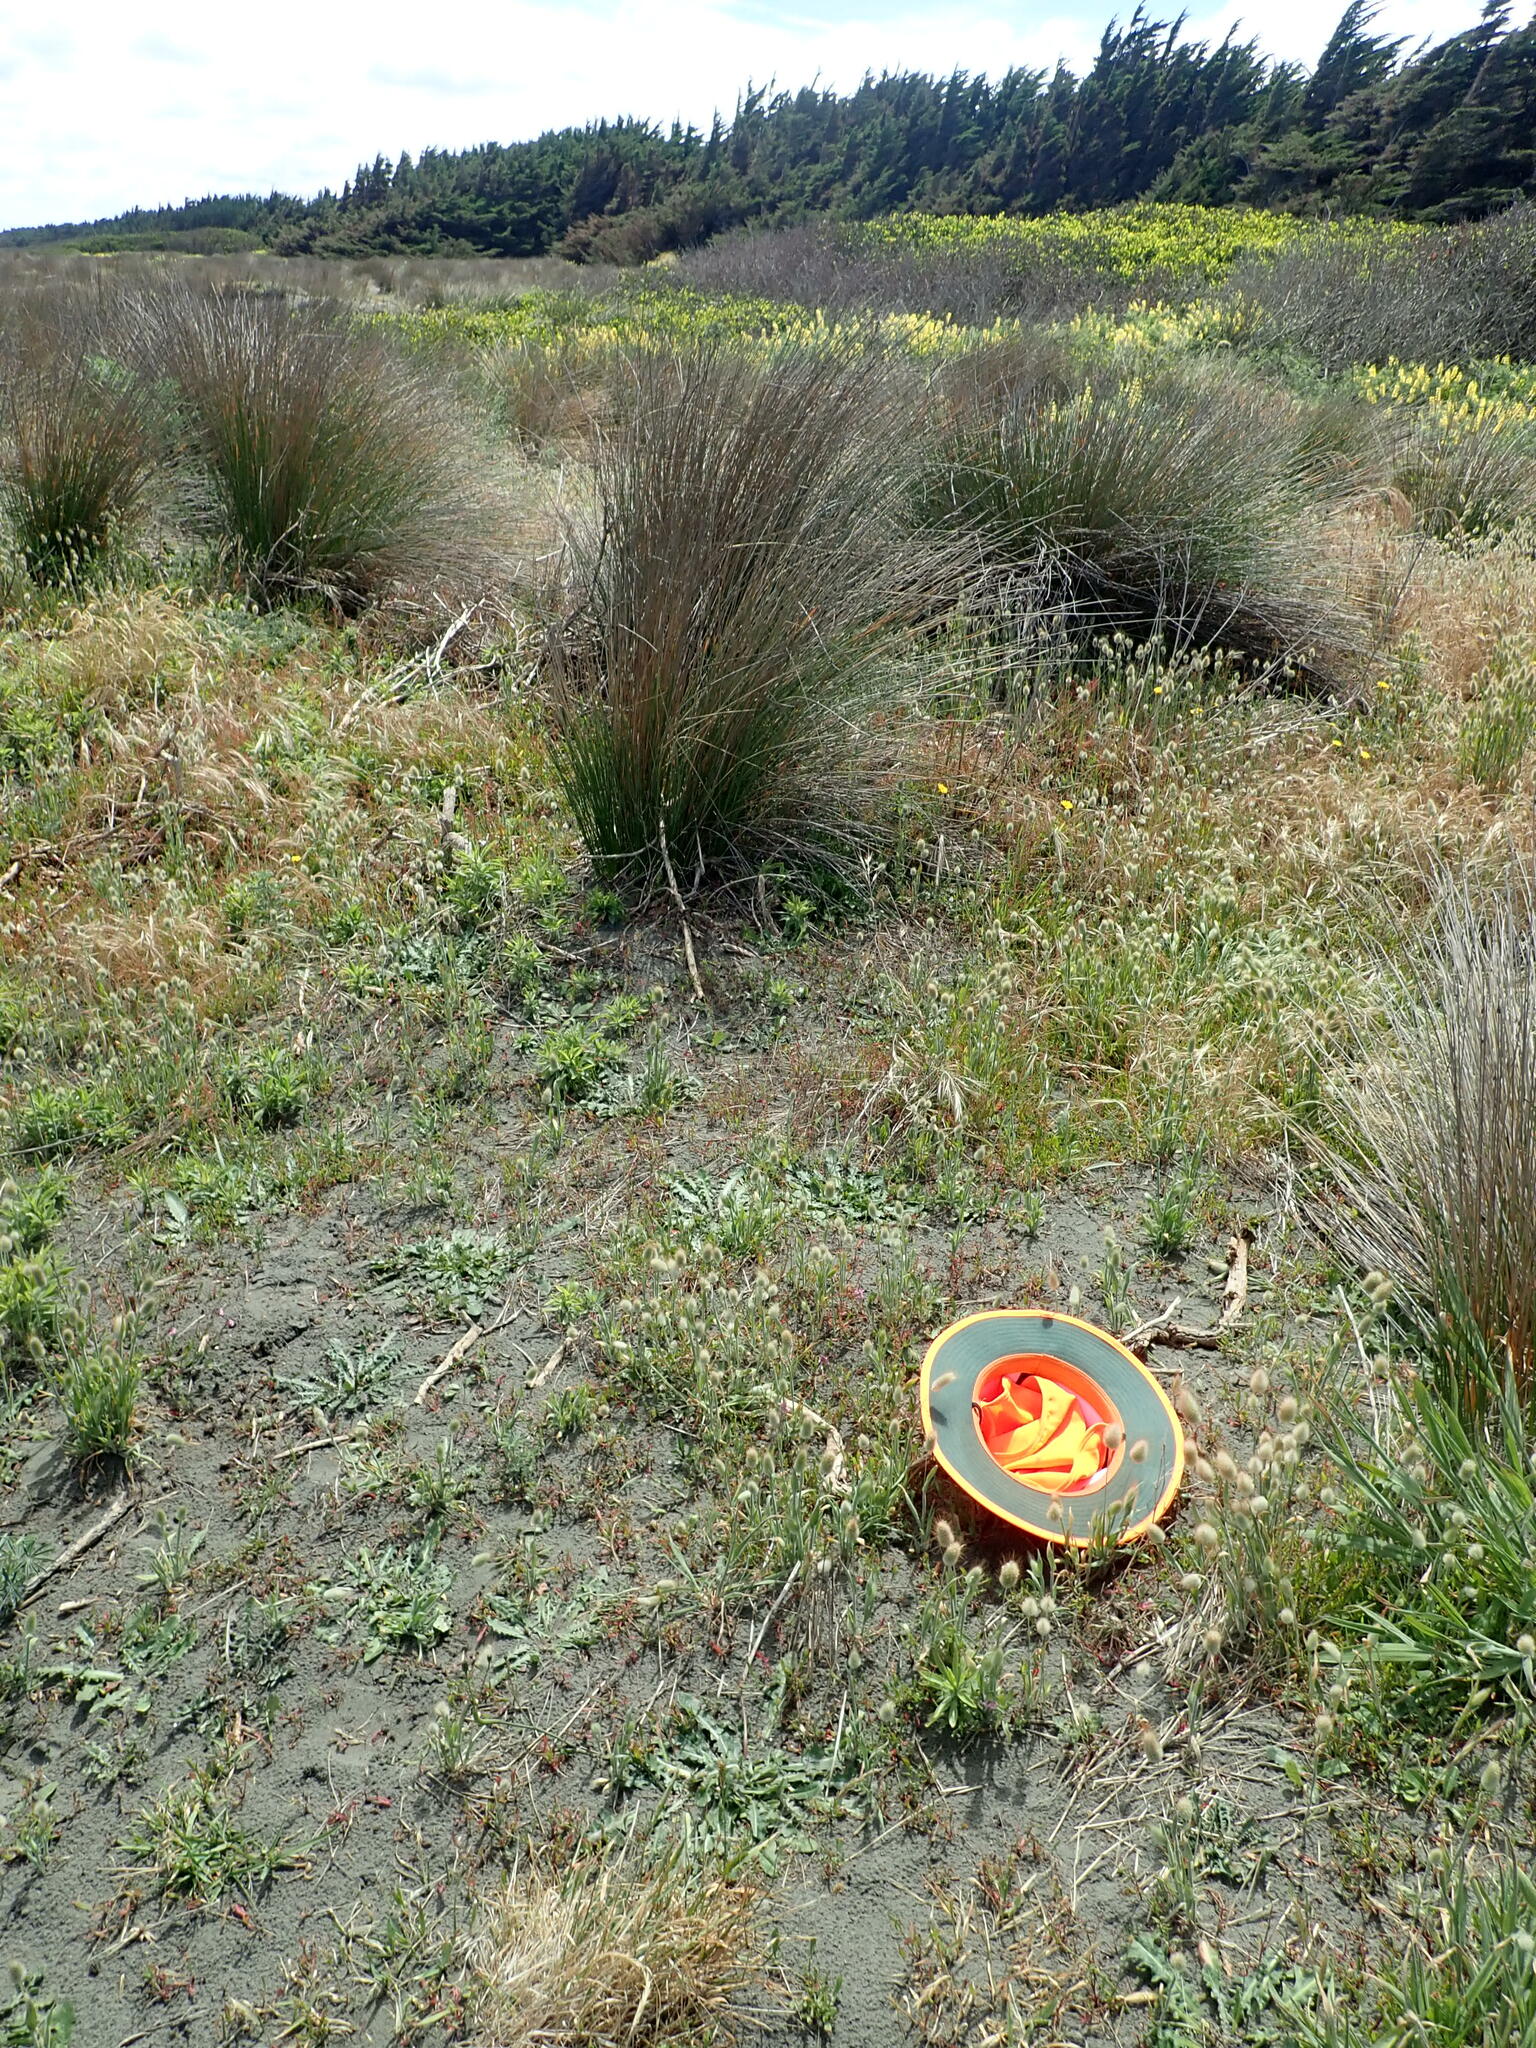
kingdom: Plantae
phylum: Tracheophyta
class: Liliopsida
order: Poales
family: Poaceae
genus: Lagurus
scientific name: Lagurus ovatus
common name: Hare's-tail
